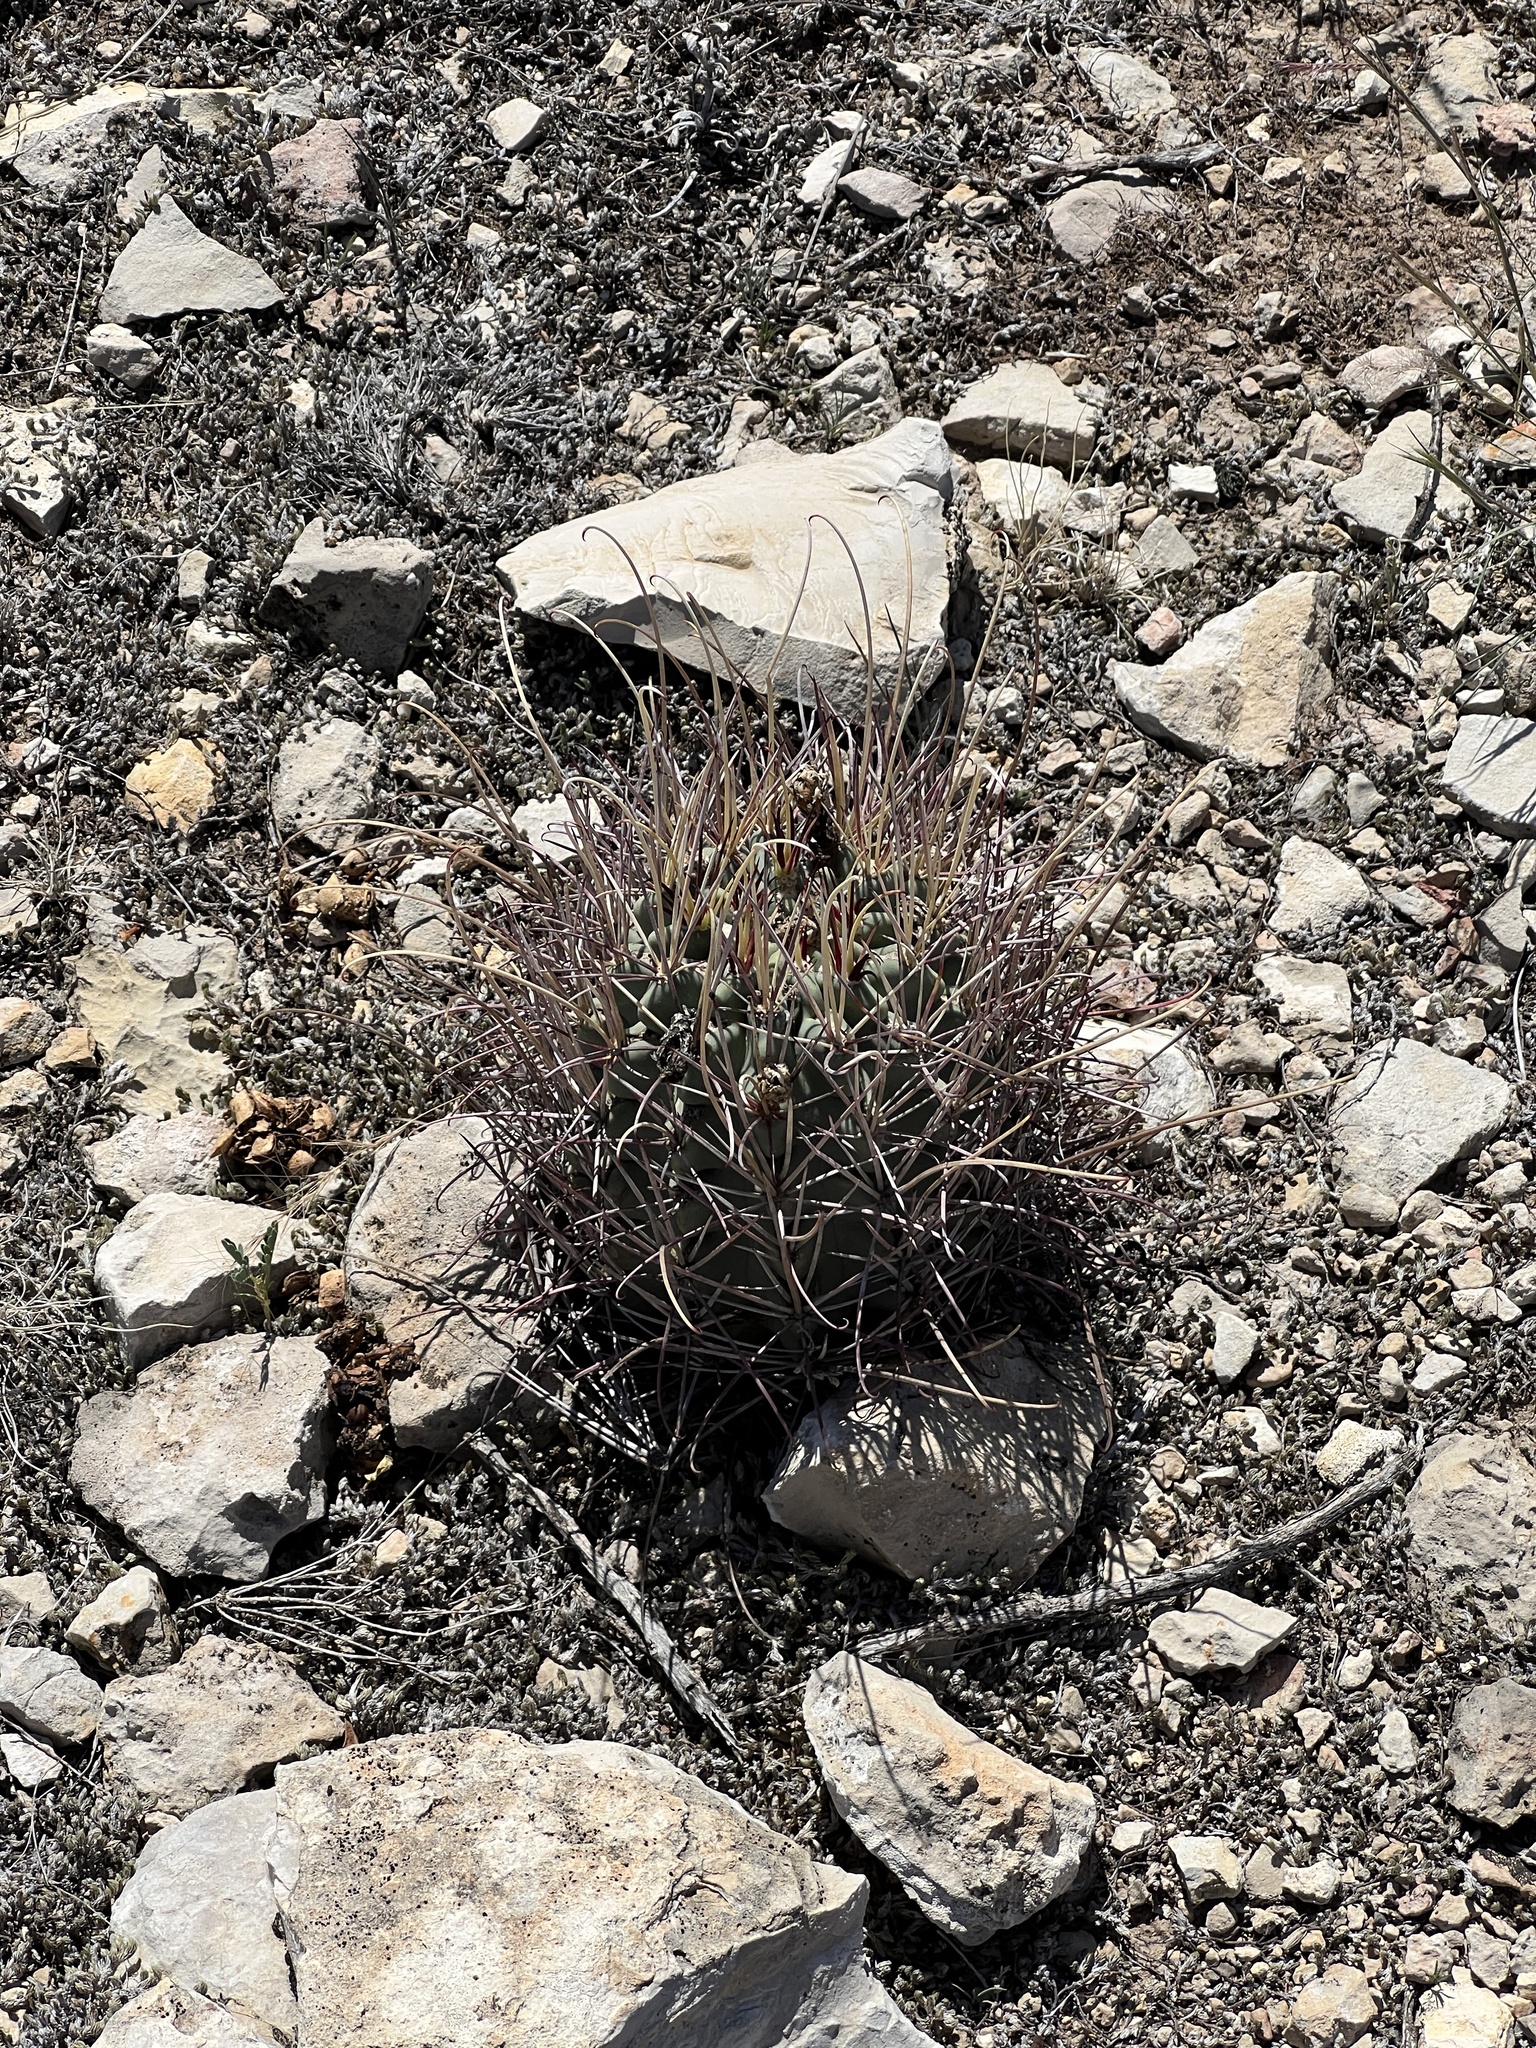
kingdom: Plantae
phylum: Tracheophyta
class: Magnoliopsida
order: Caryophyllales
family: Cactaceae
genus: Ferocactus
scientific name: Ferocactus uncinatus
